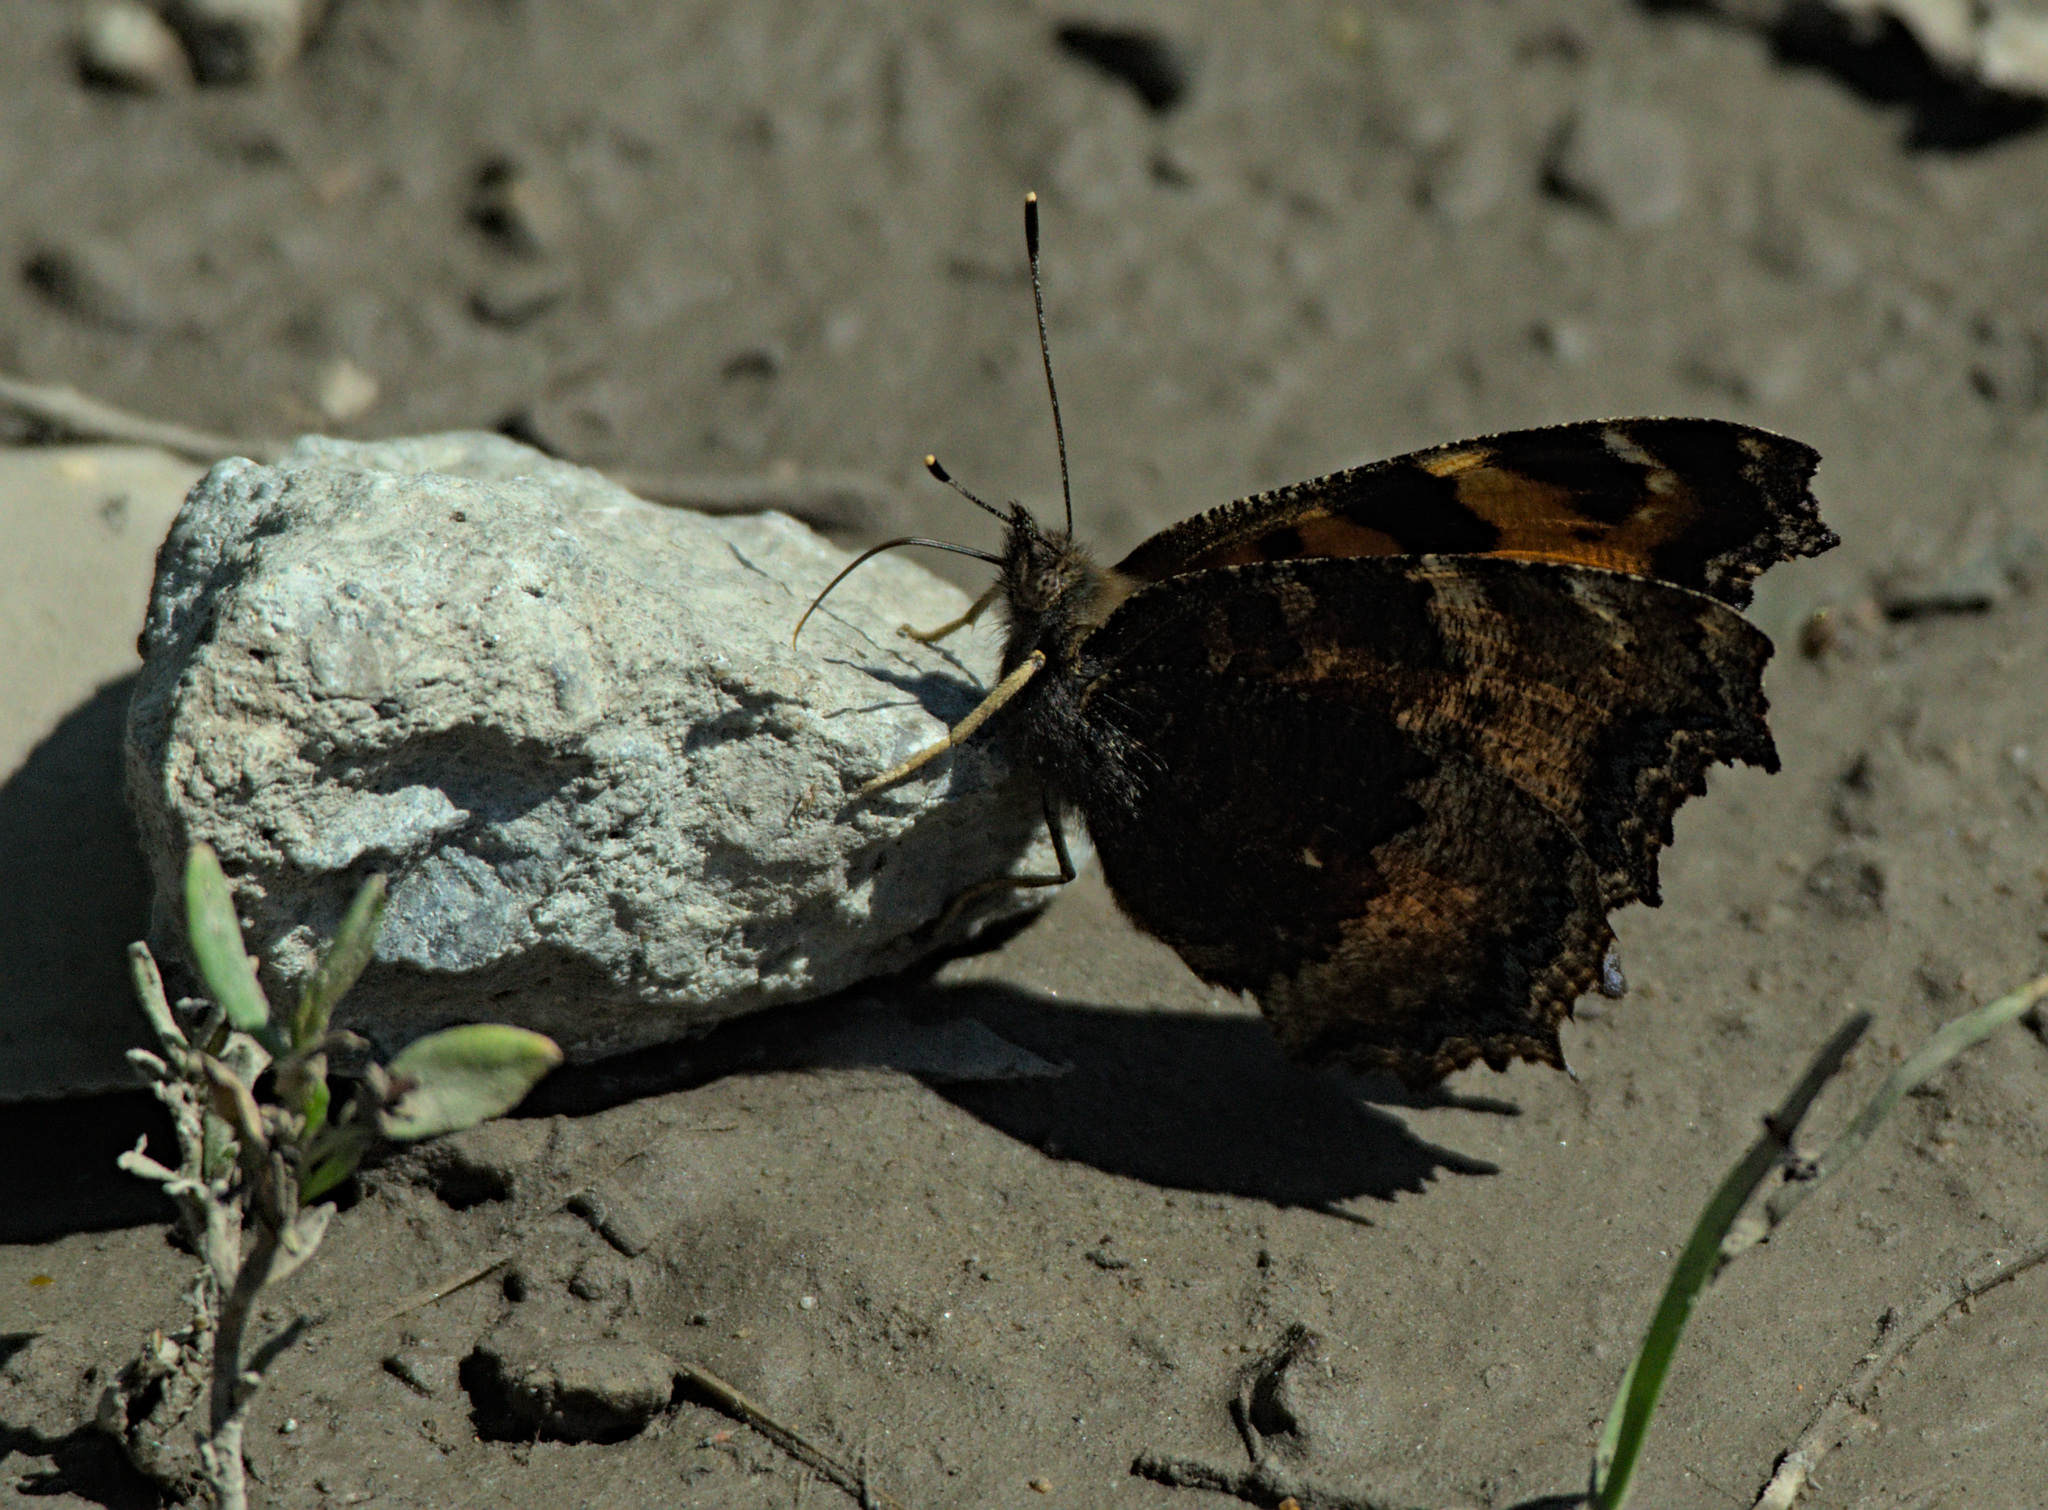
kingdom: Animalia
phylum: Arthropoda
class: Insecta
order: Lepidoptera
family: Nymphalidae
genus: Nymphalis
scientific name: Nymphalis xanthomelas
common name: Scarce tortoiseshell
